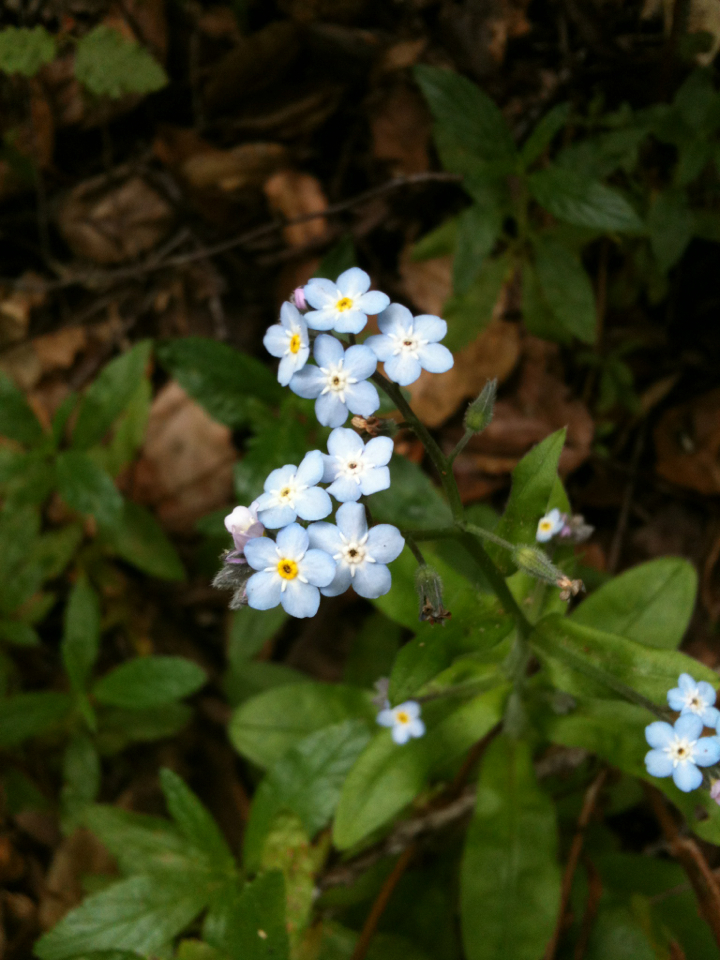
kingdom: Plantae
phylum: Tracheophyta
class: Magnoliopsida
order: Boraginales
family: Boraginaceae
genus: Myosotis
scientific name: Myosotis latifolia
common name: Broadleaf forget-me-not
